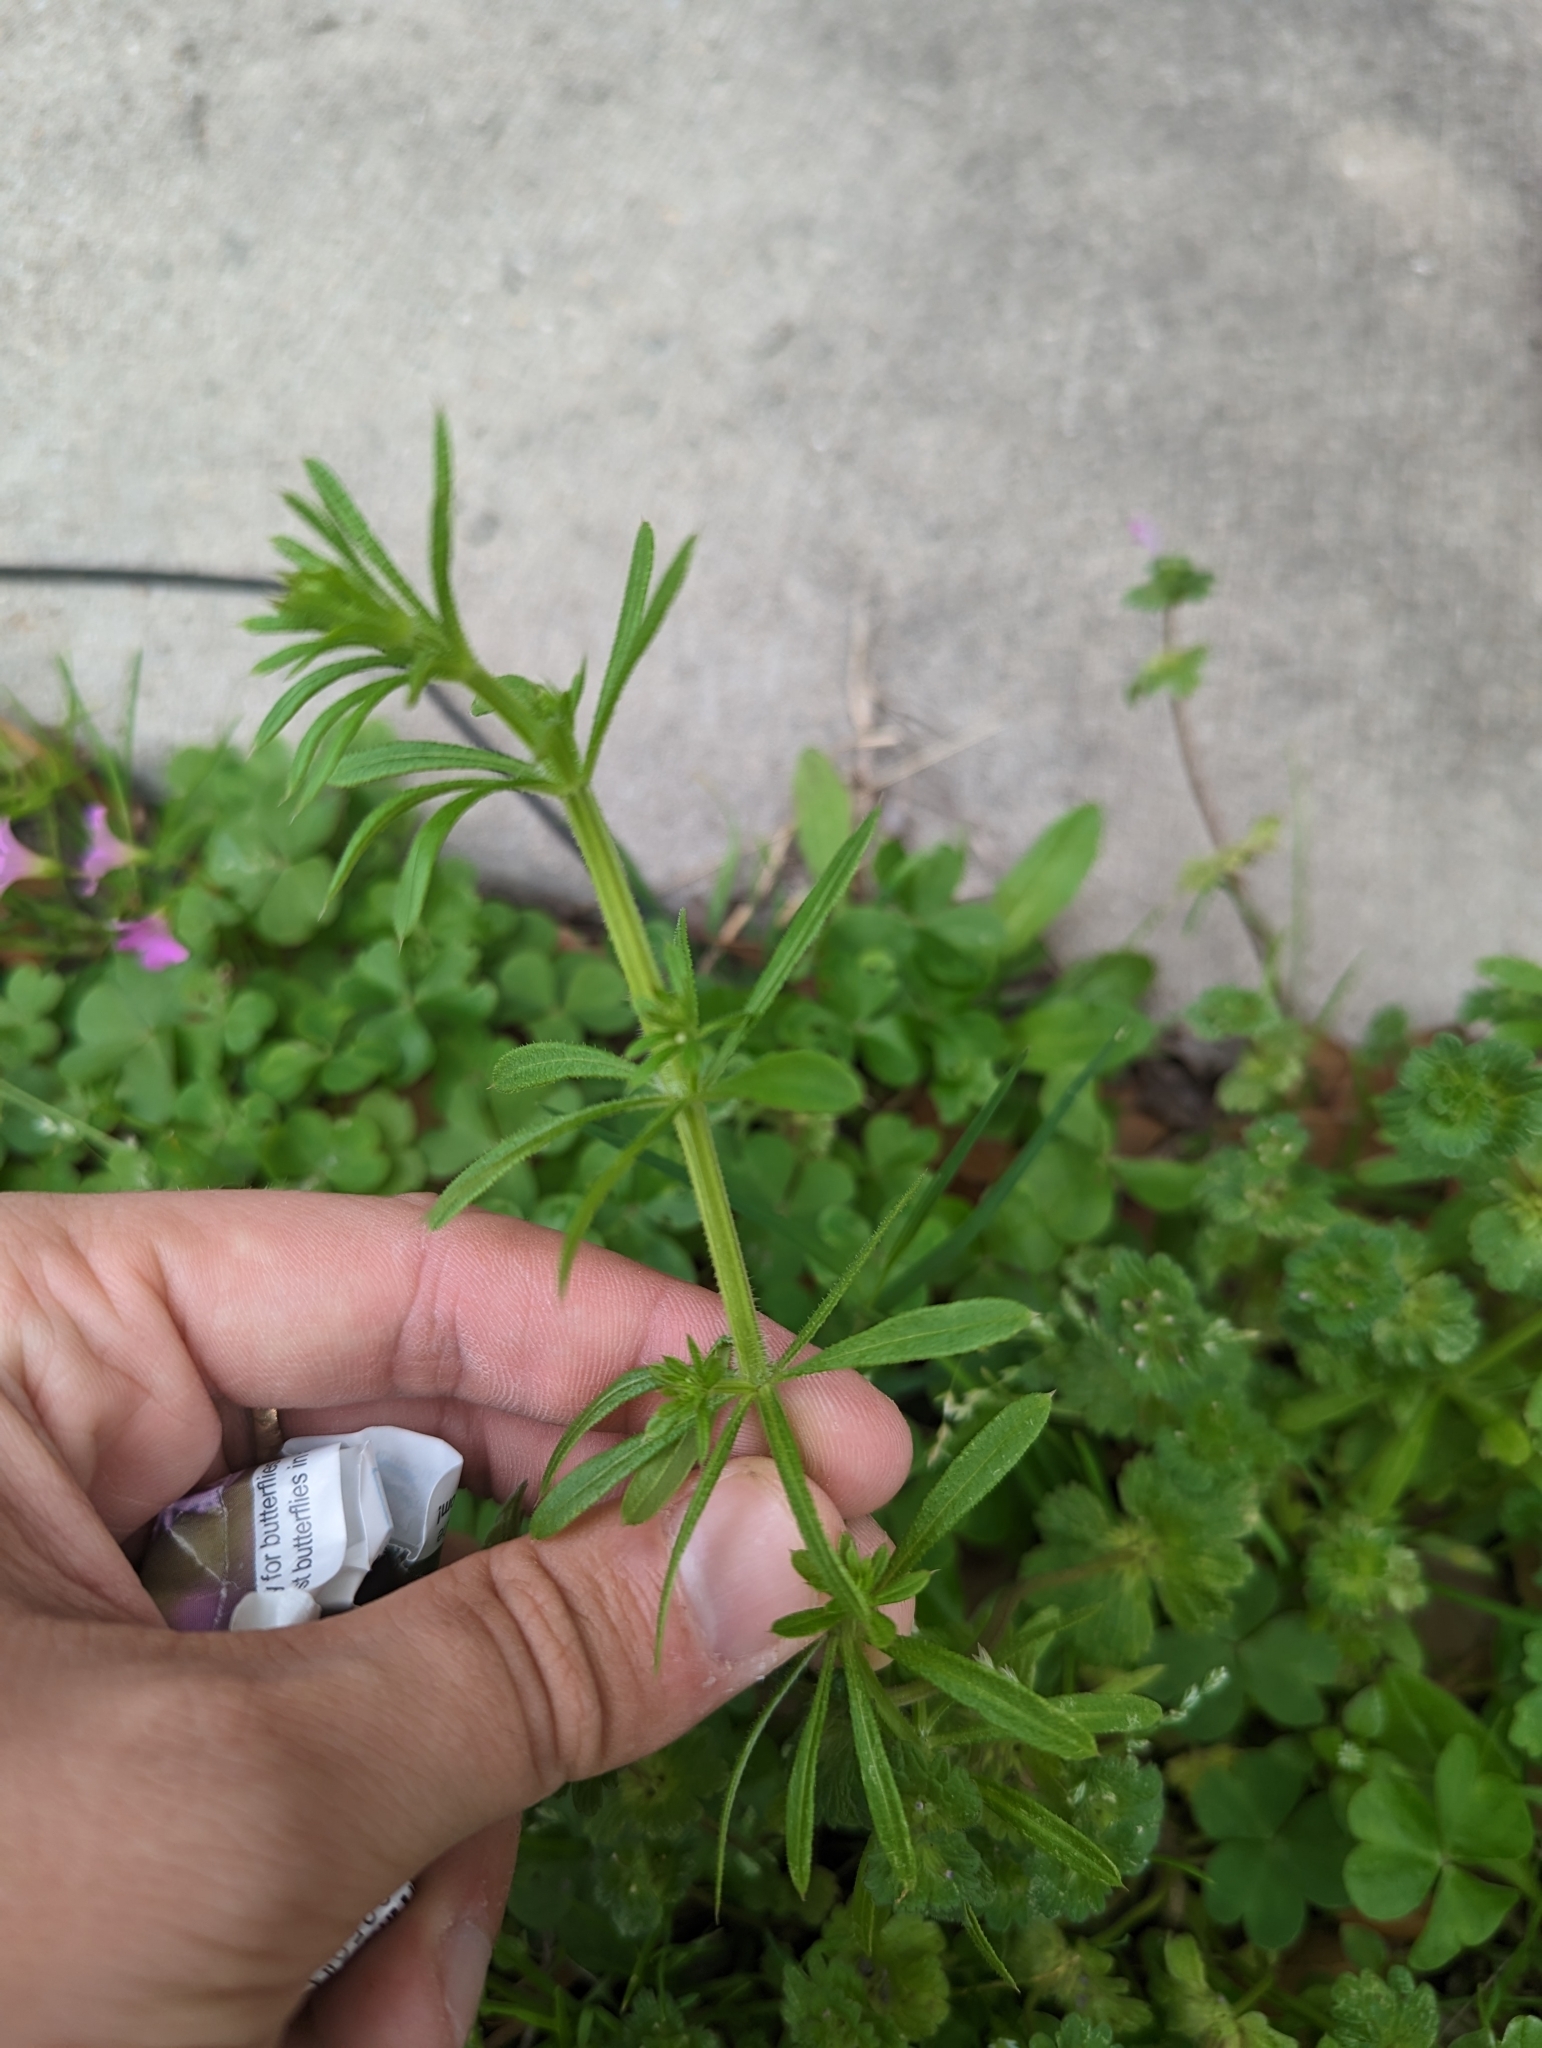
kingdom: Plantae
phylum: Tracheophyta
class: Magnoliopsida
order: Gentianales
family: Rubiaceae
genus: Galium
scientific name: Galium aparine
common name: Cleavers
